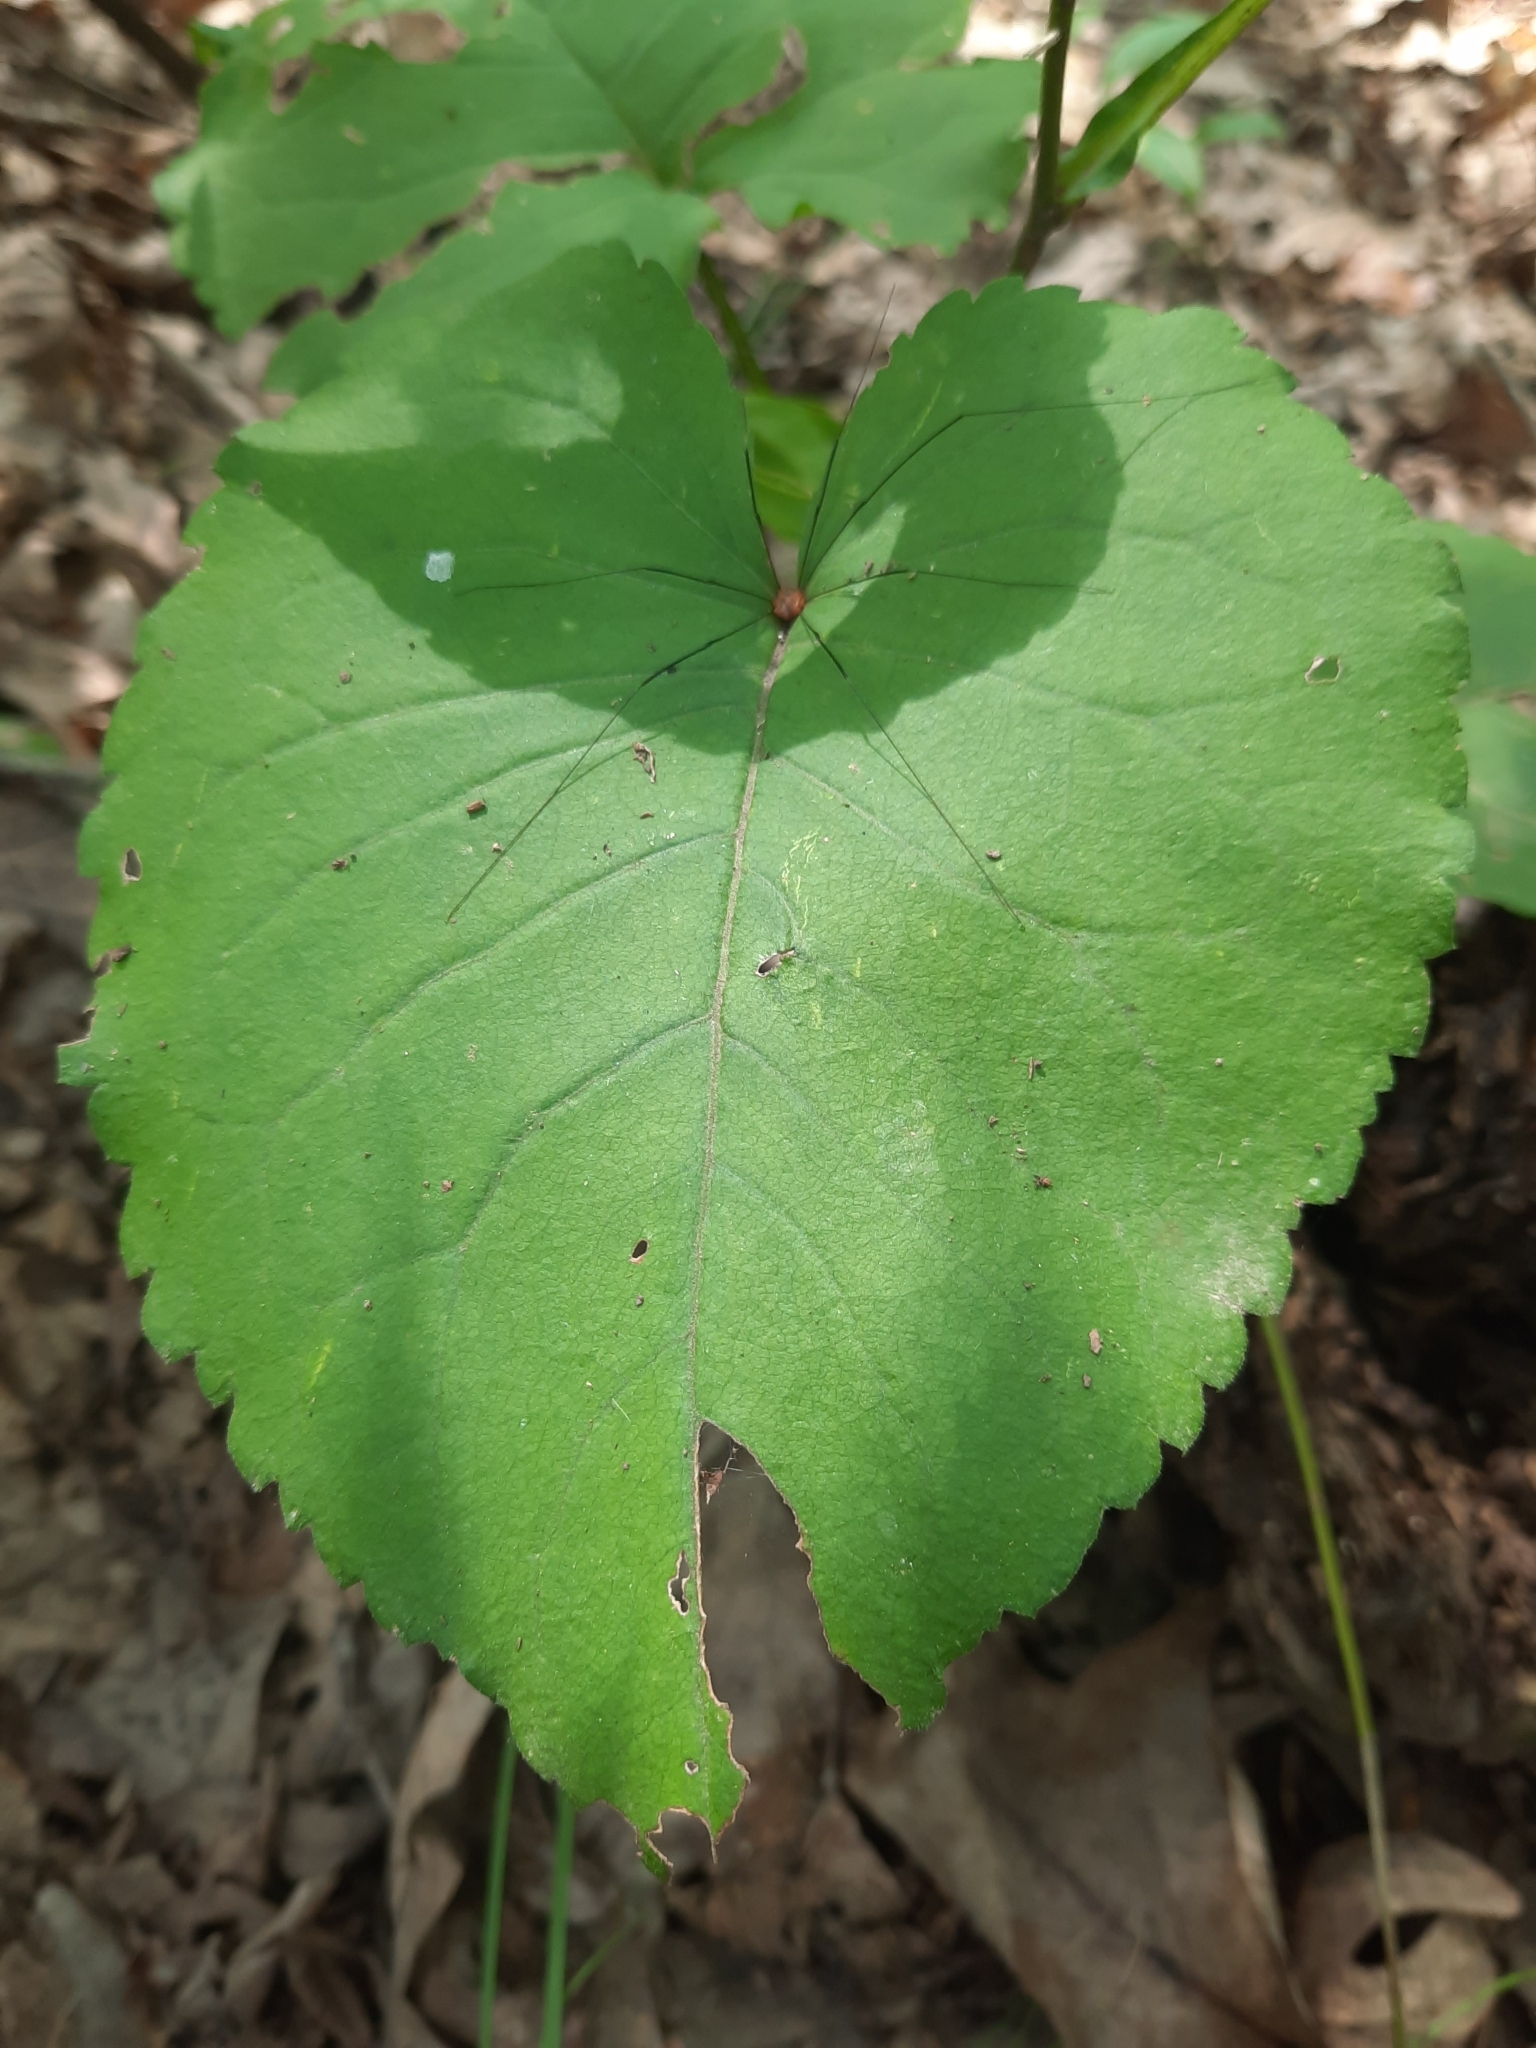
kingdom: Plantae
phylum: Tracheophyta
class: Magnoliopsida
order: Asterales
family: Asteraceae
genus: Eurybia
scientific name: Eurybia macrophylla
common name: Big-leaved aster
